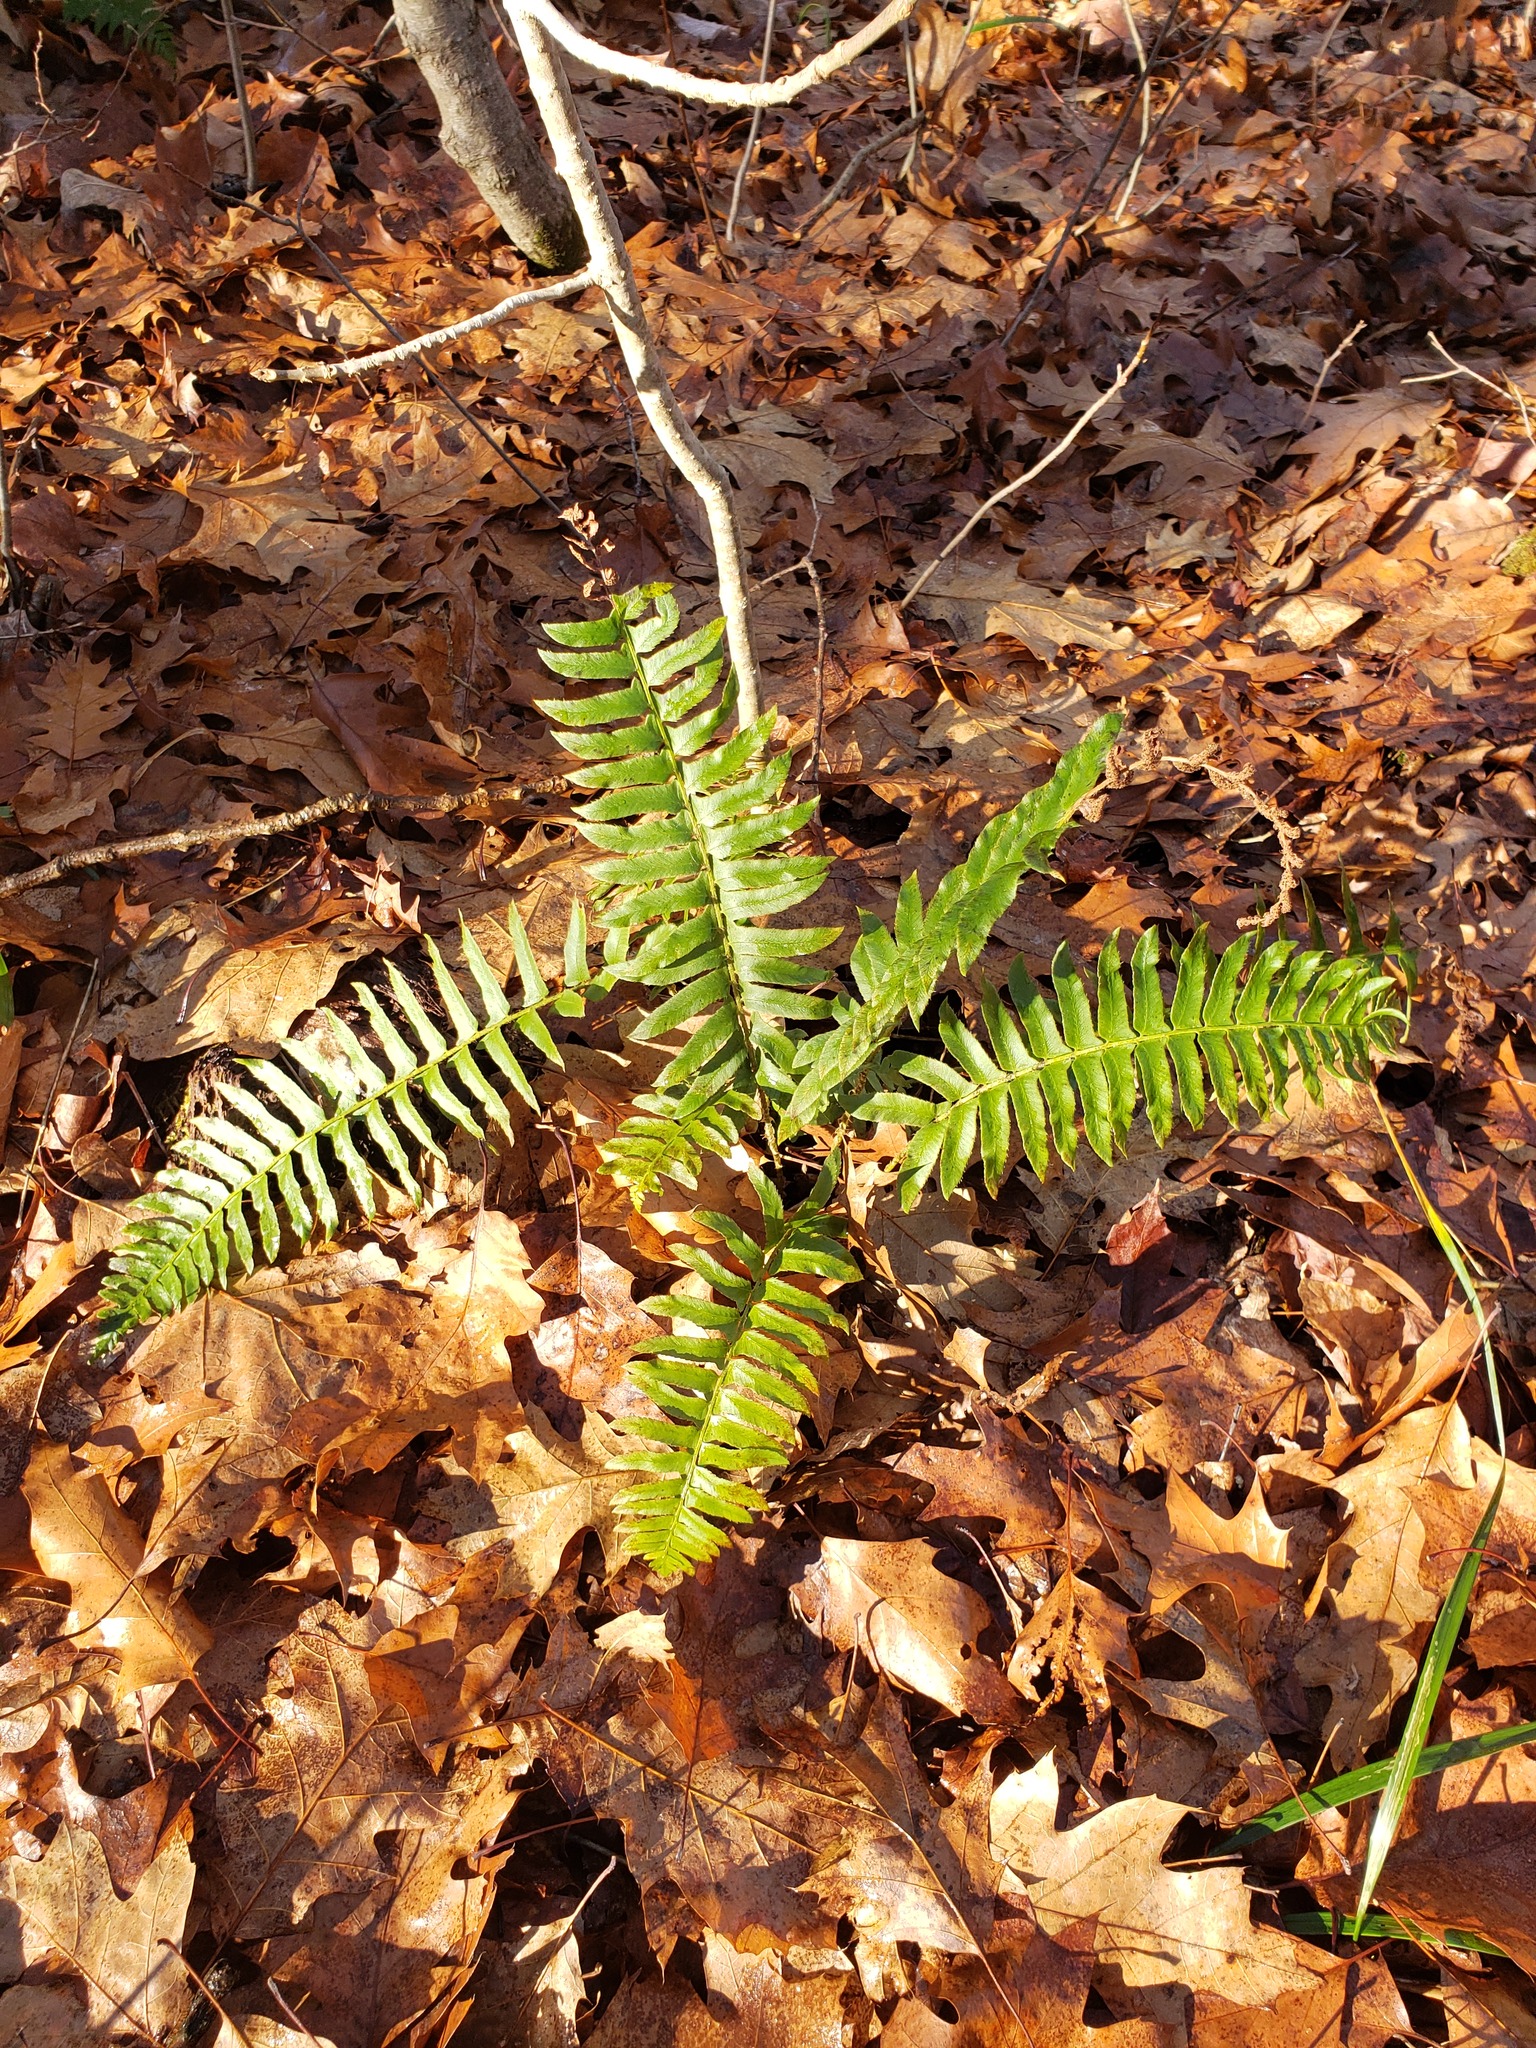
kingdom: Plantae
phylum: Tracheophyta
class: Polypodiopsida
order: Polypodiales
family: Dryopteridaceae
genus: Polystichum
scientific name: Polystichum acrostichoides
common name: Christmas fern
